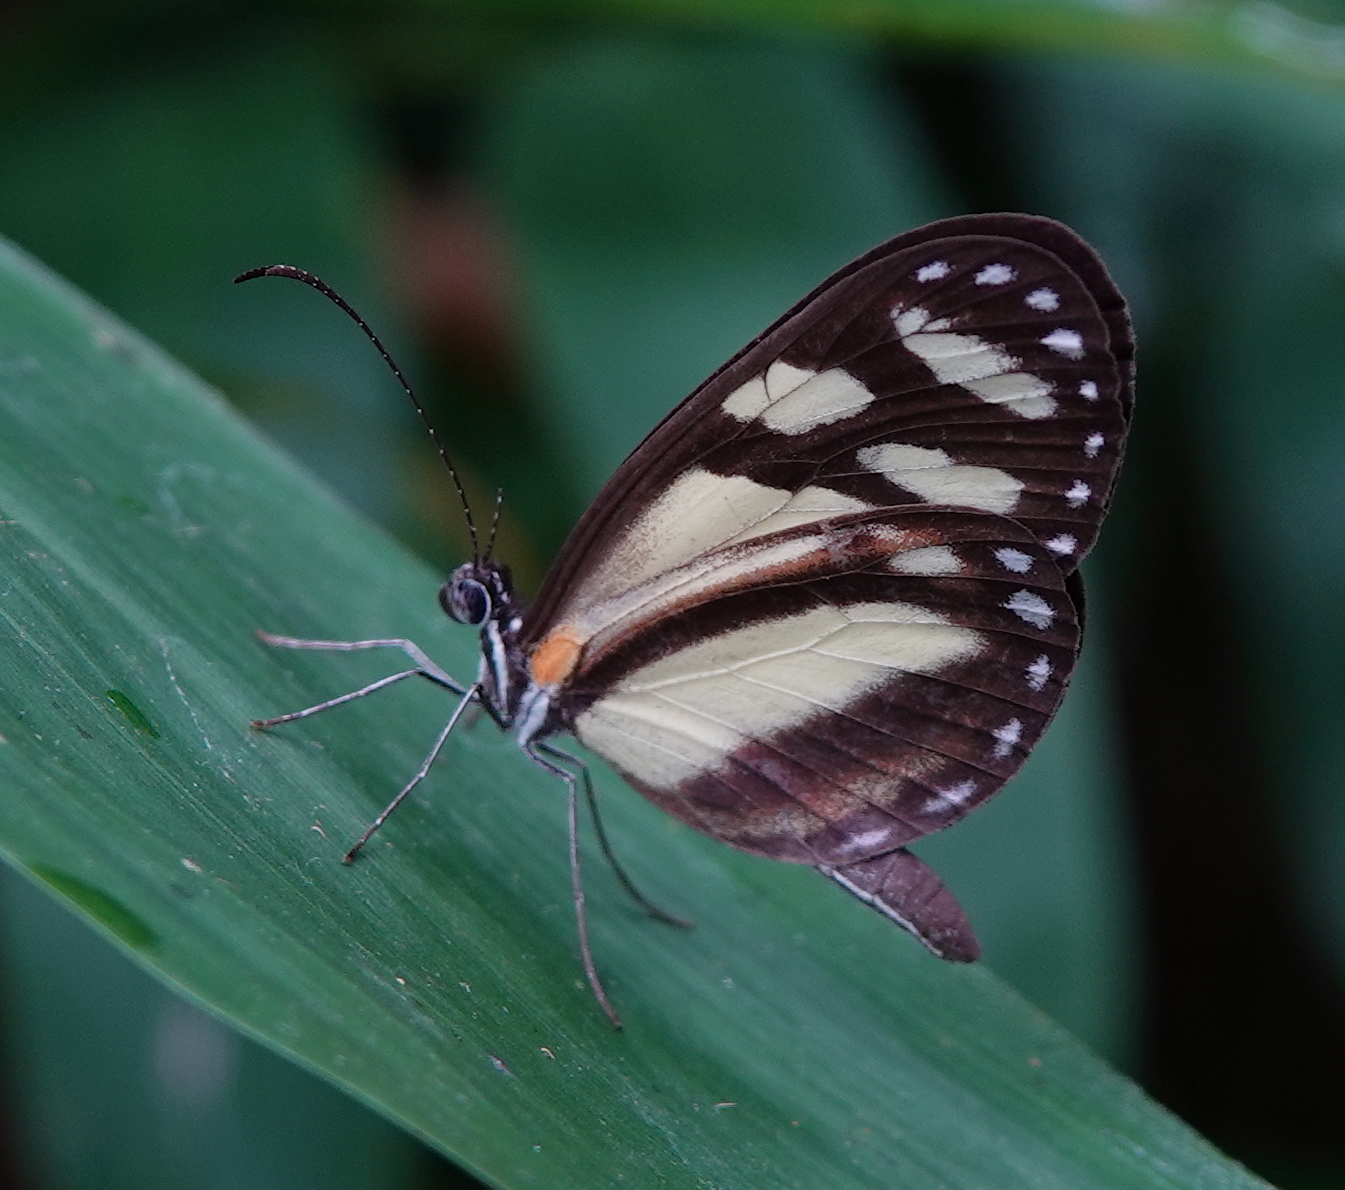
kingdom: Animalia
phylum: Arthropoda
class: Insecta
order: Lepidoptera
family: Pieridae
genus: Dismorphia
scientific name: Dismorphia theucharila
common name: Clearwing mimic-white
